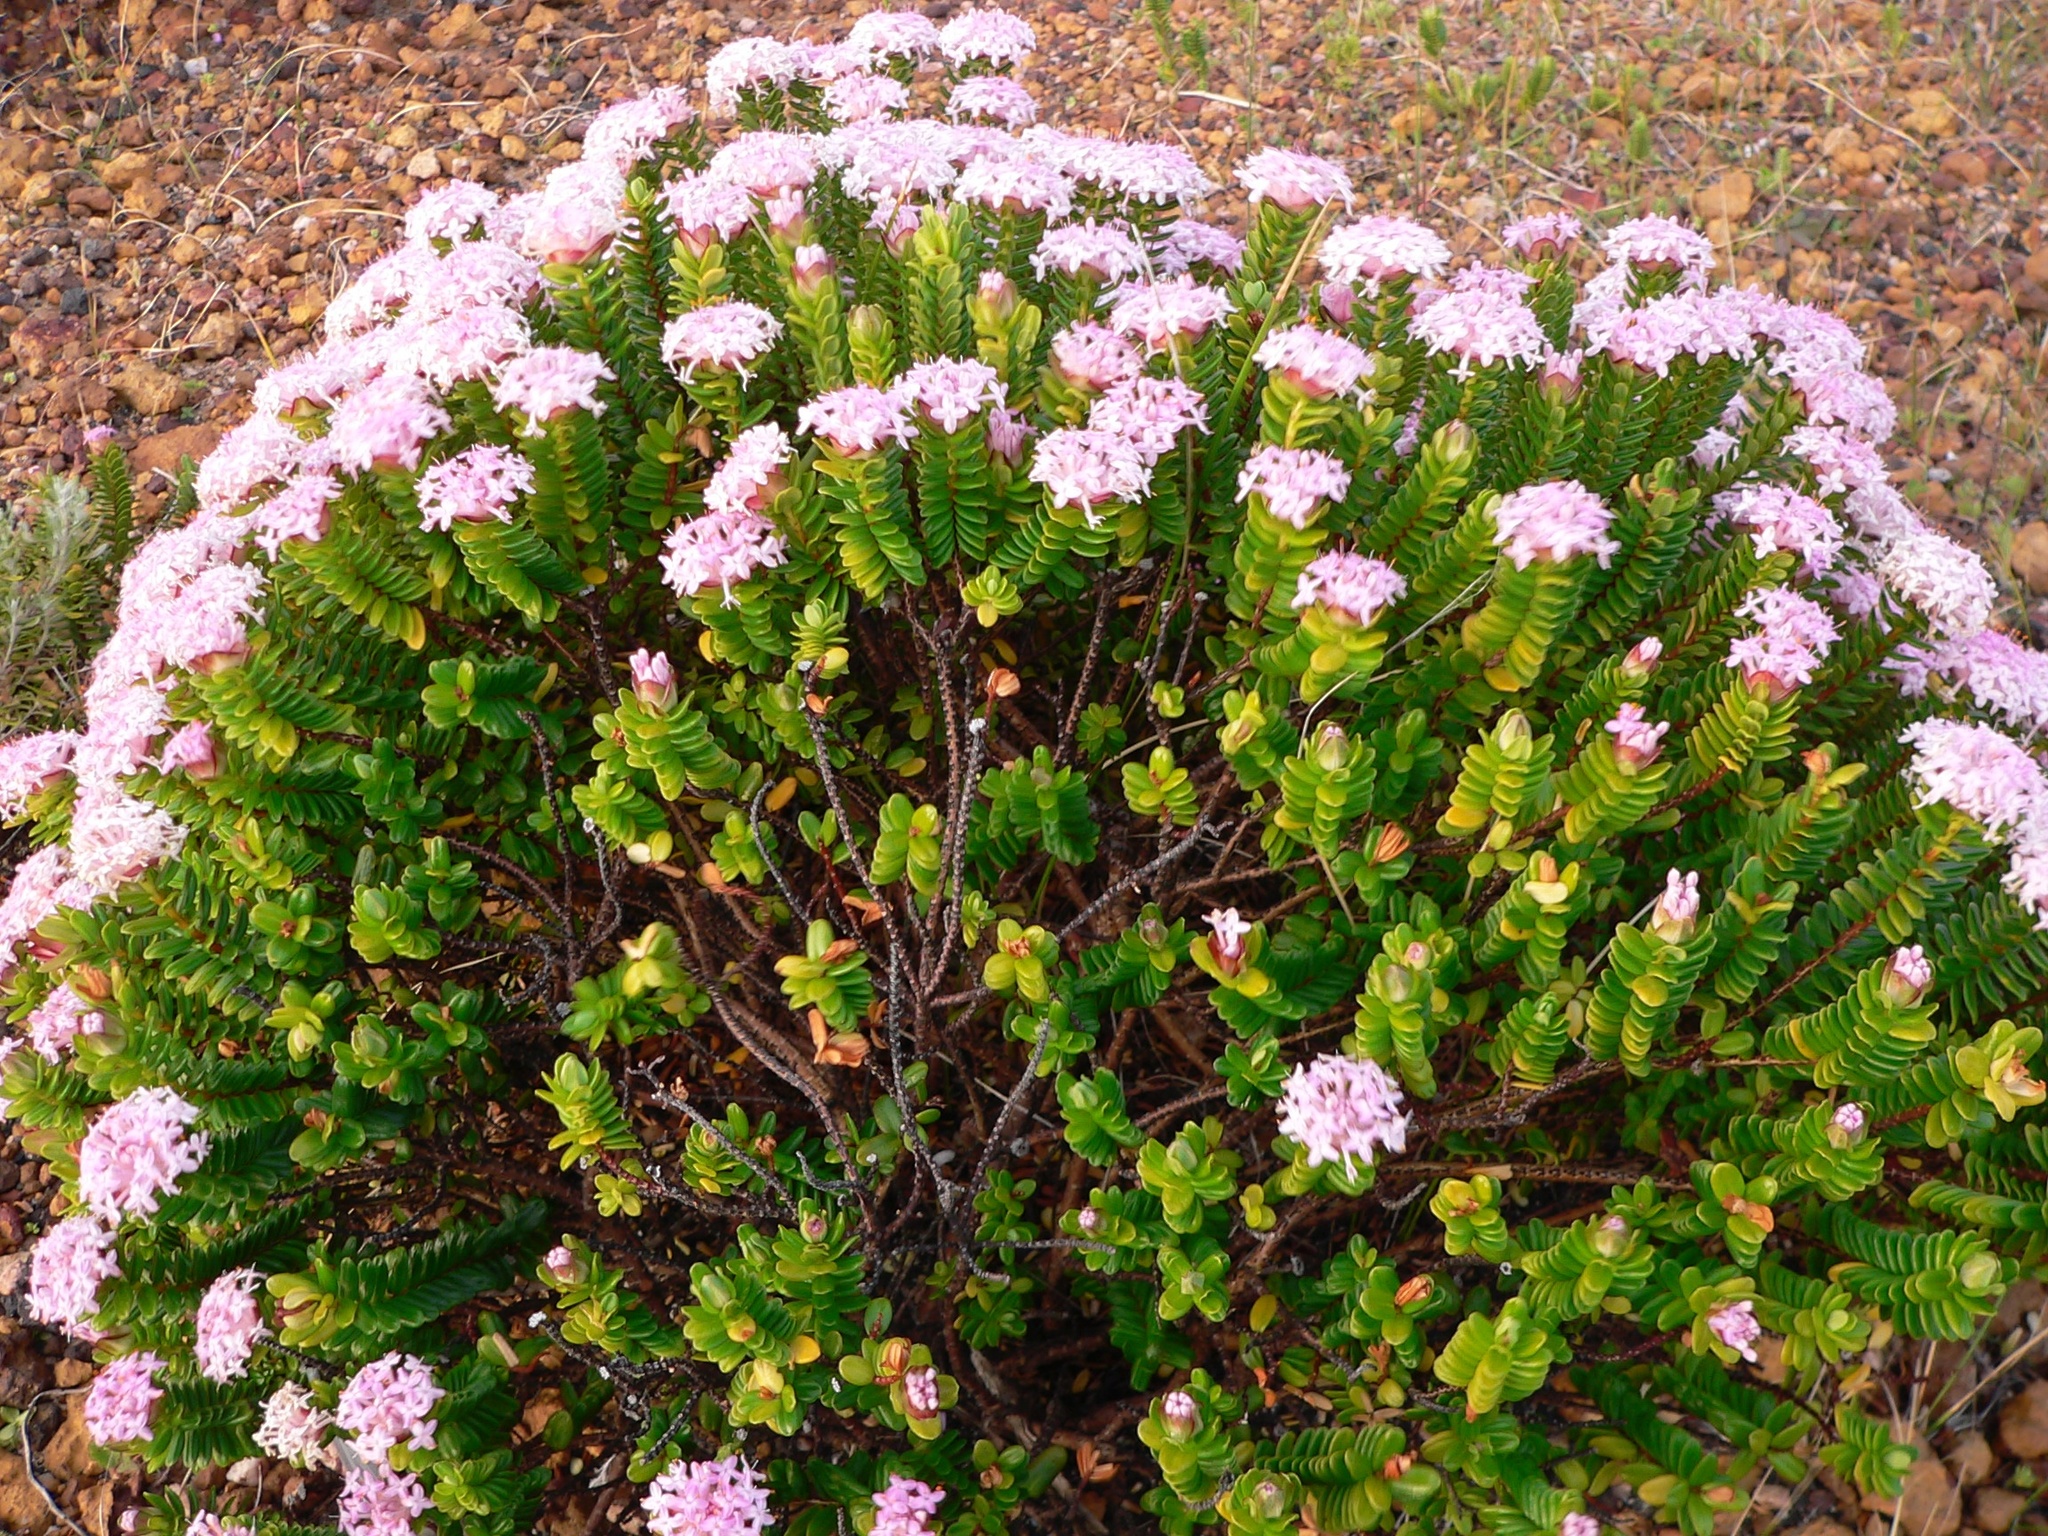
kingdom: Plantae
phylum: Tracheophyta
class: Magnoliopsida
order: Malvales
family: Thymelaeaceae
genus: Pimelea
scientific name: Pimelea ferruginea
